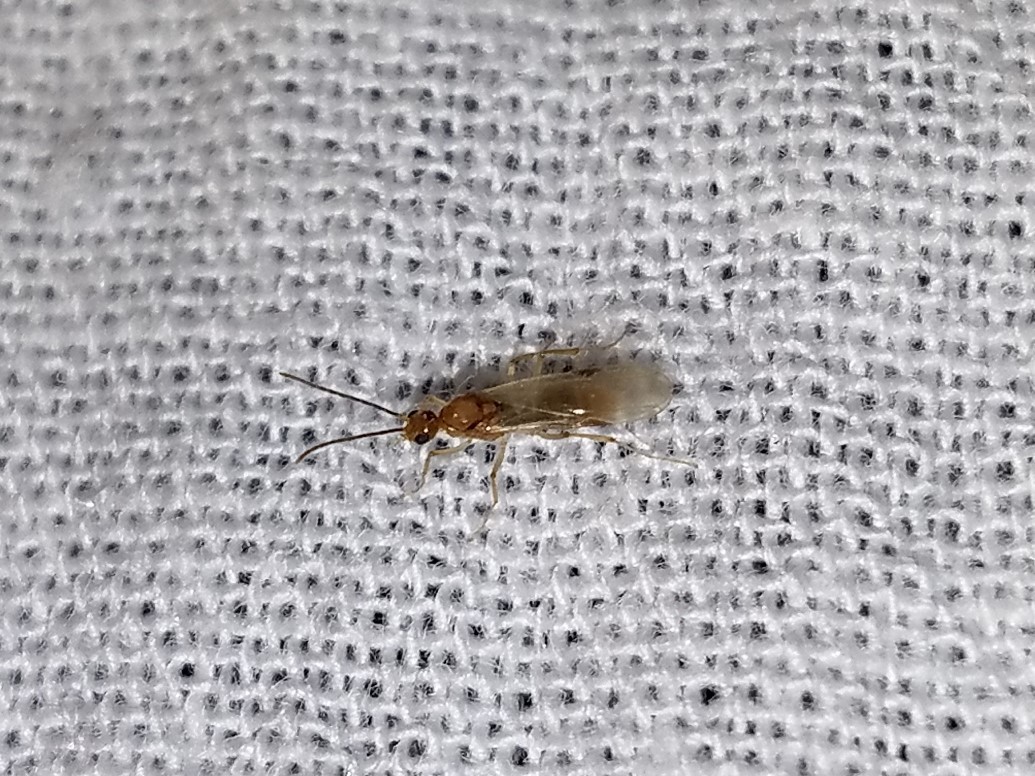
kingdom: Animalia
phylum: Arthropoda
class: Insecta
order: Hymenoptera
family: Formicidae
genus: Pachycondyla
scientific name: Pachycondyla chinensis
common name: Asian needle ant
